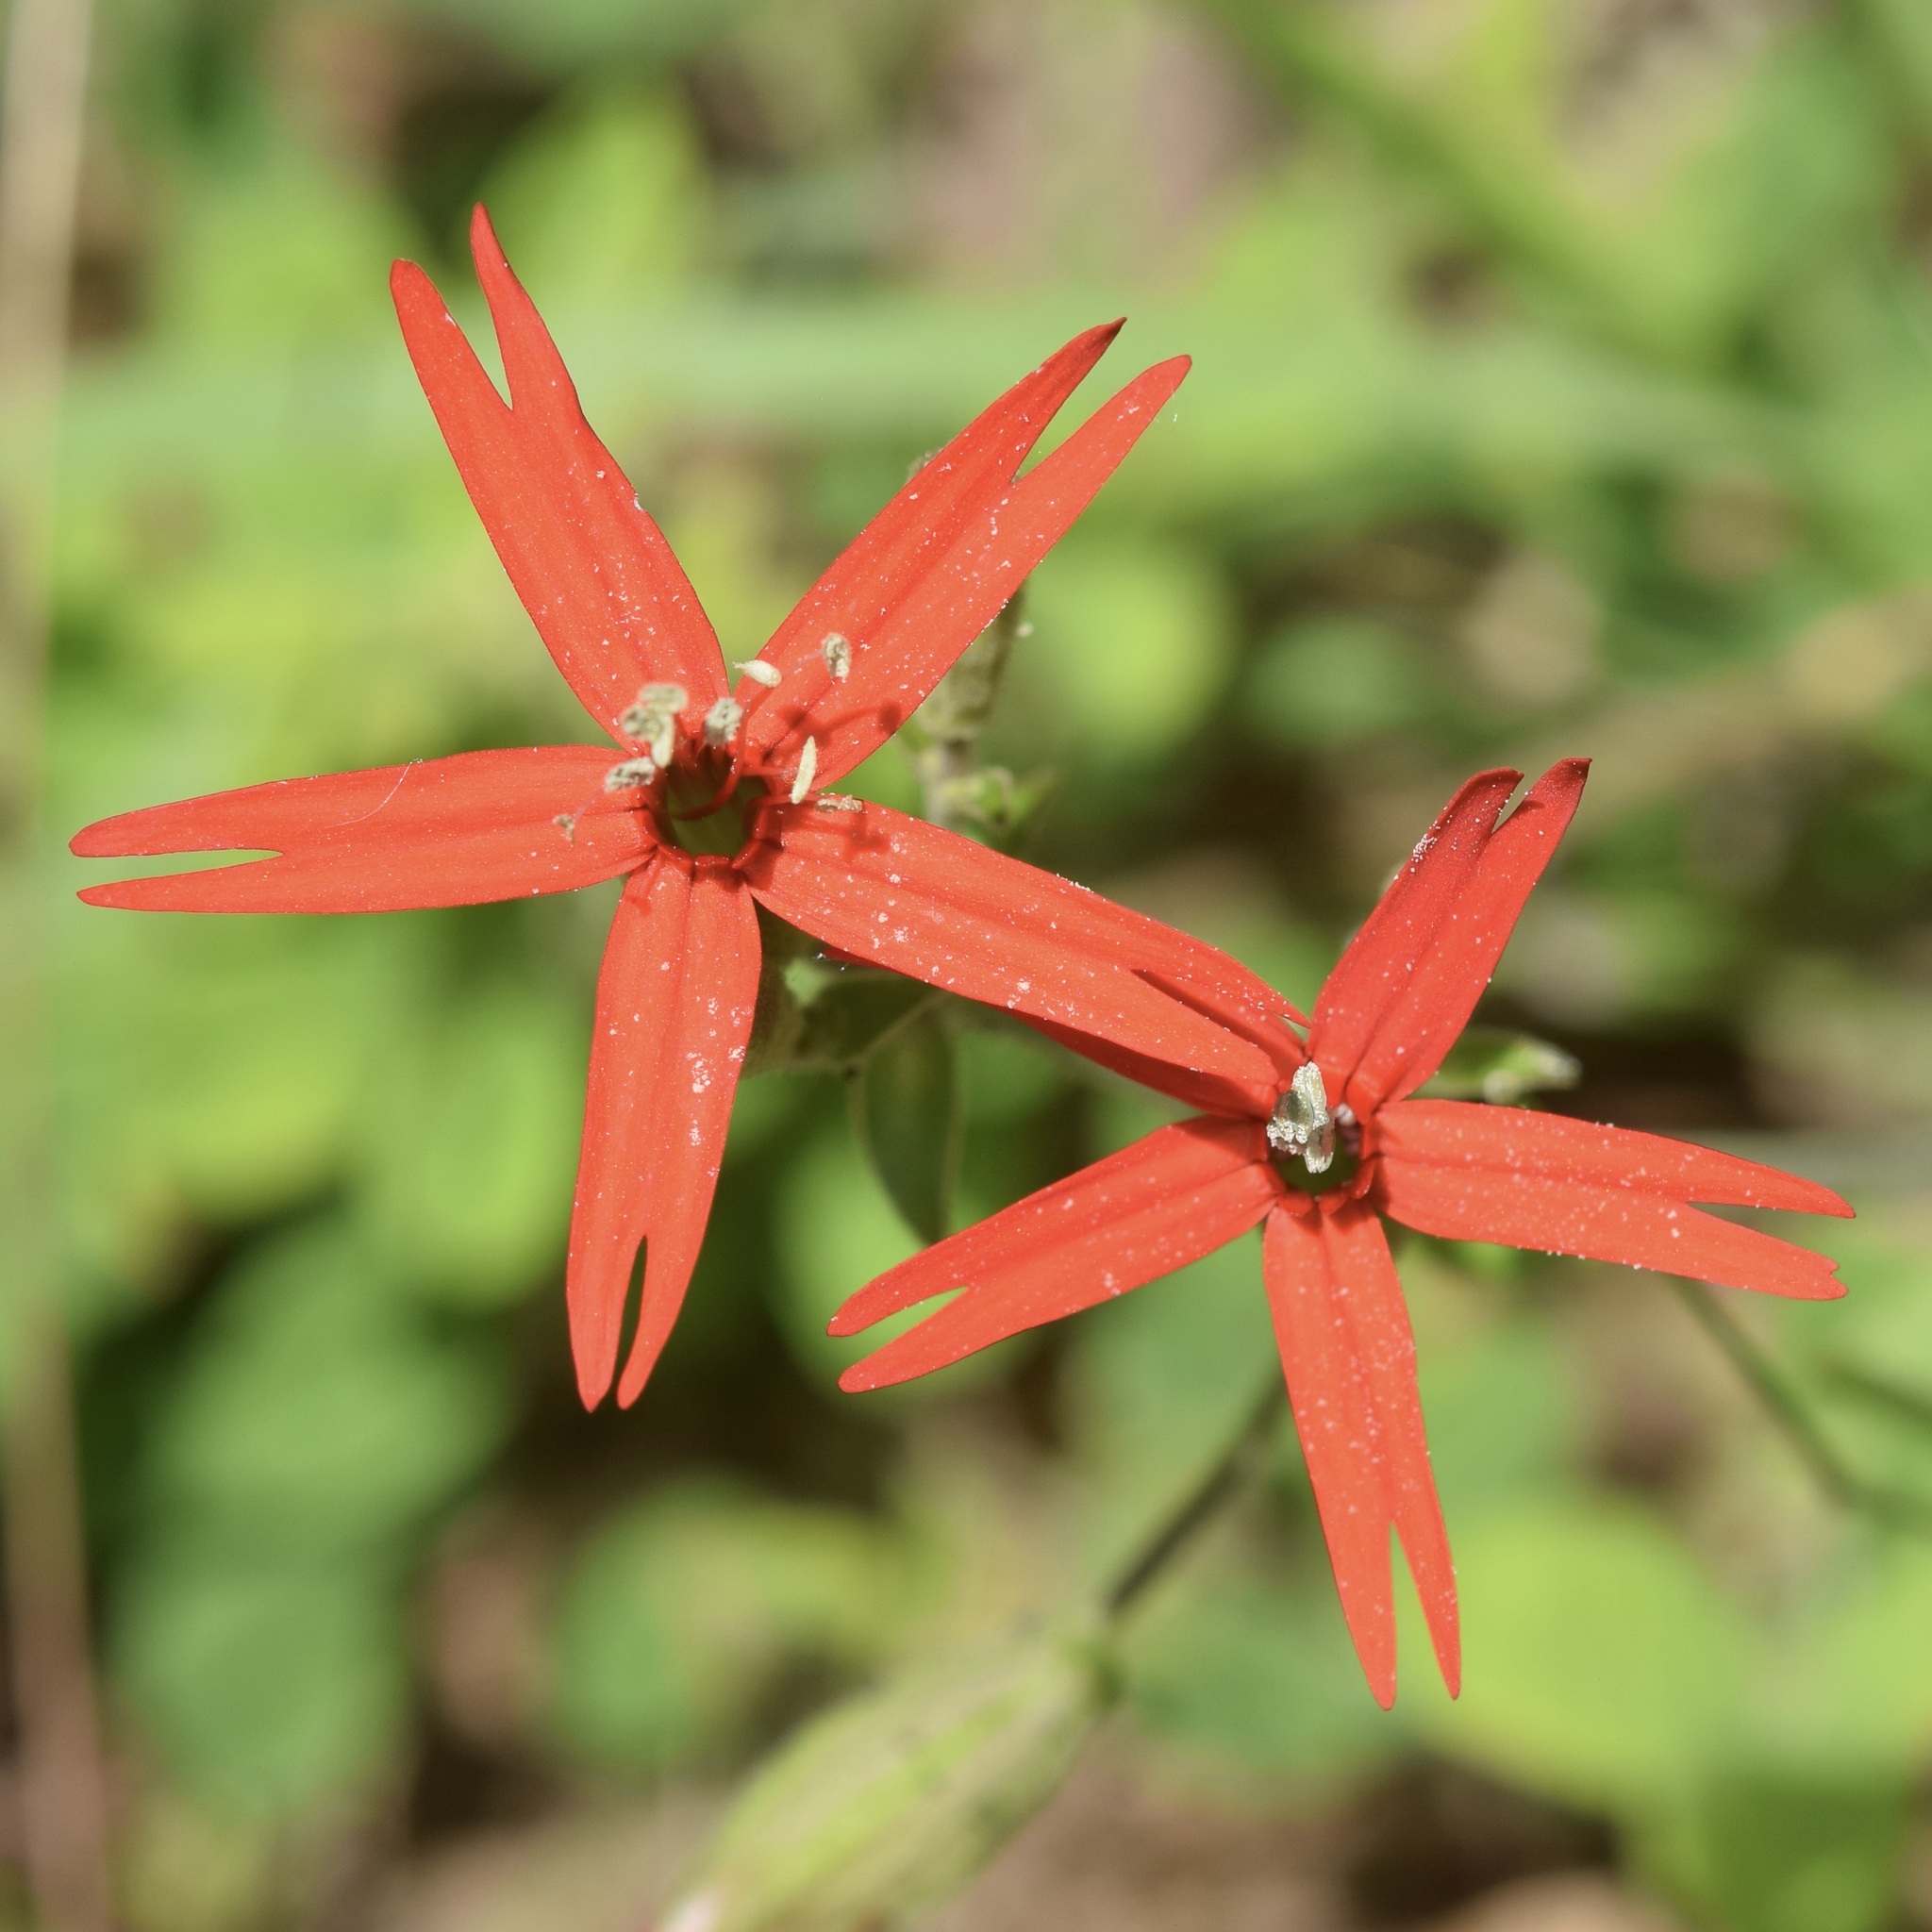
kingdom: Plantae
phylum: Tracheophyta
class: Magnoliopsida
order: Caryophyllales
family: Caryophyllaceae
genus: Silene
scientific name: Silene virginica
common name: Fire-pink
